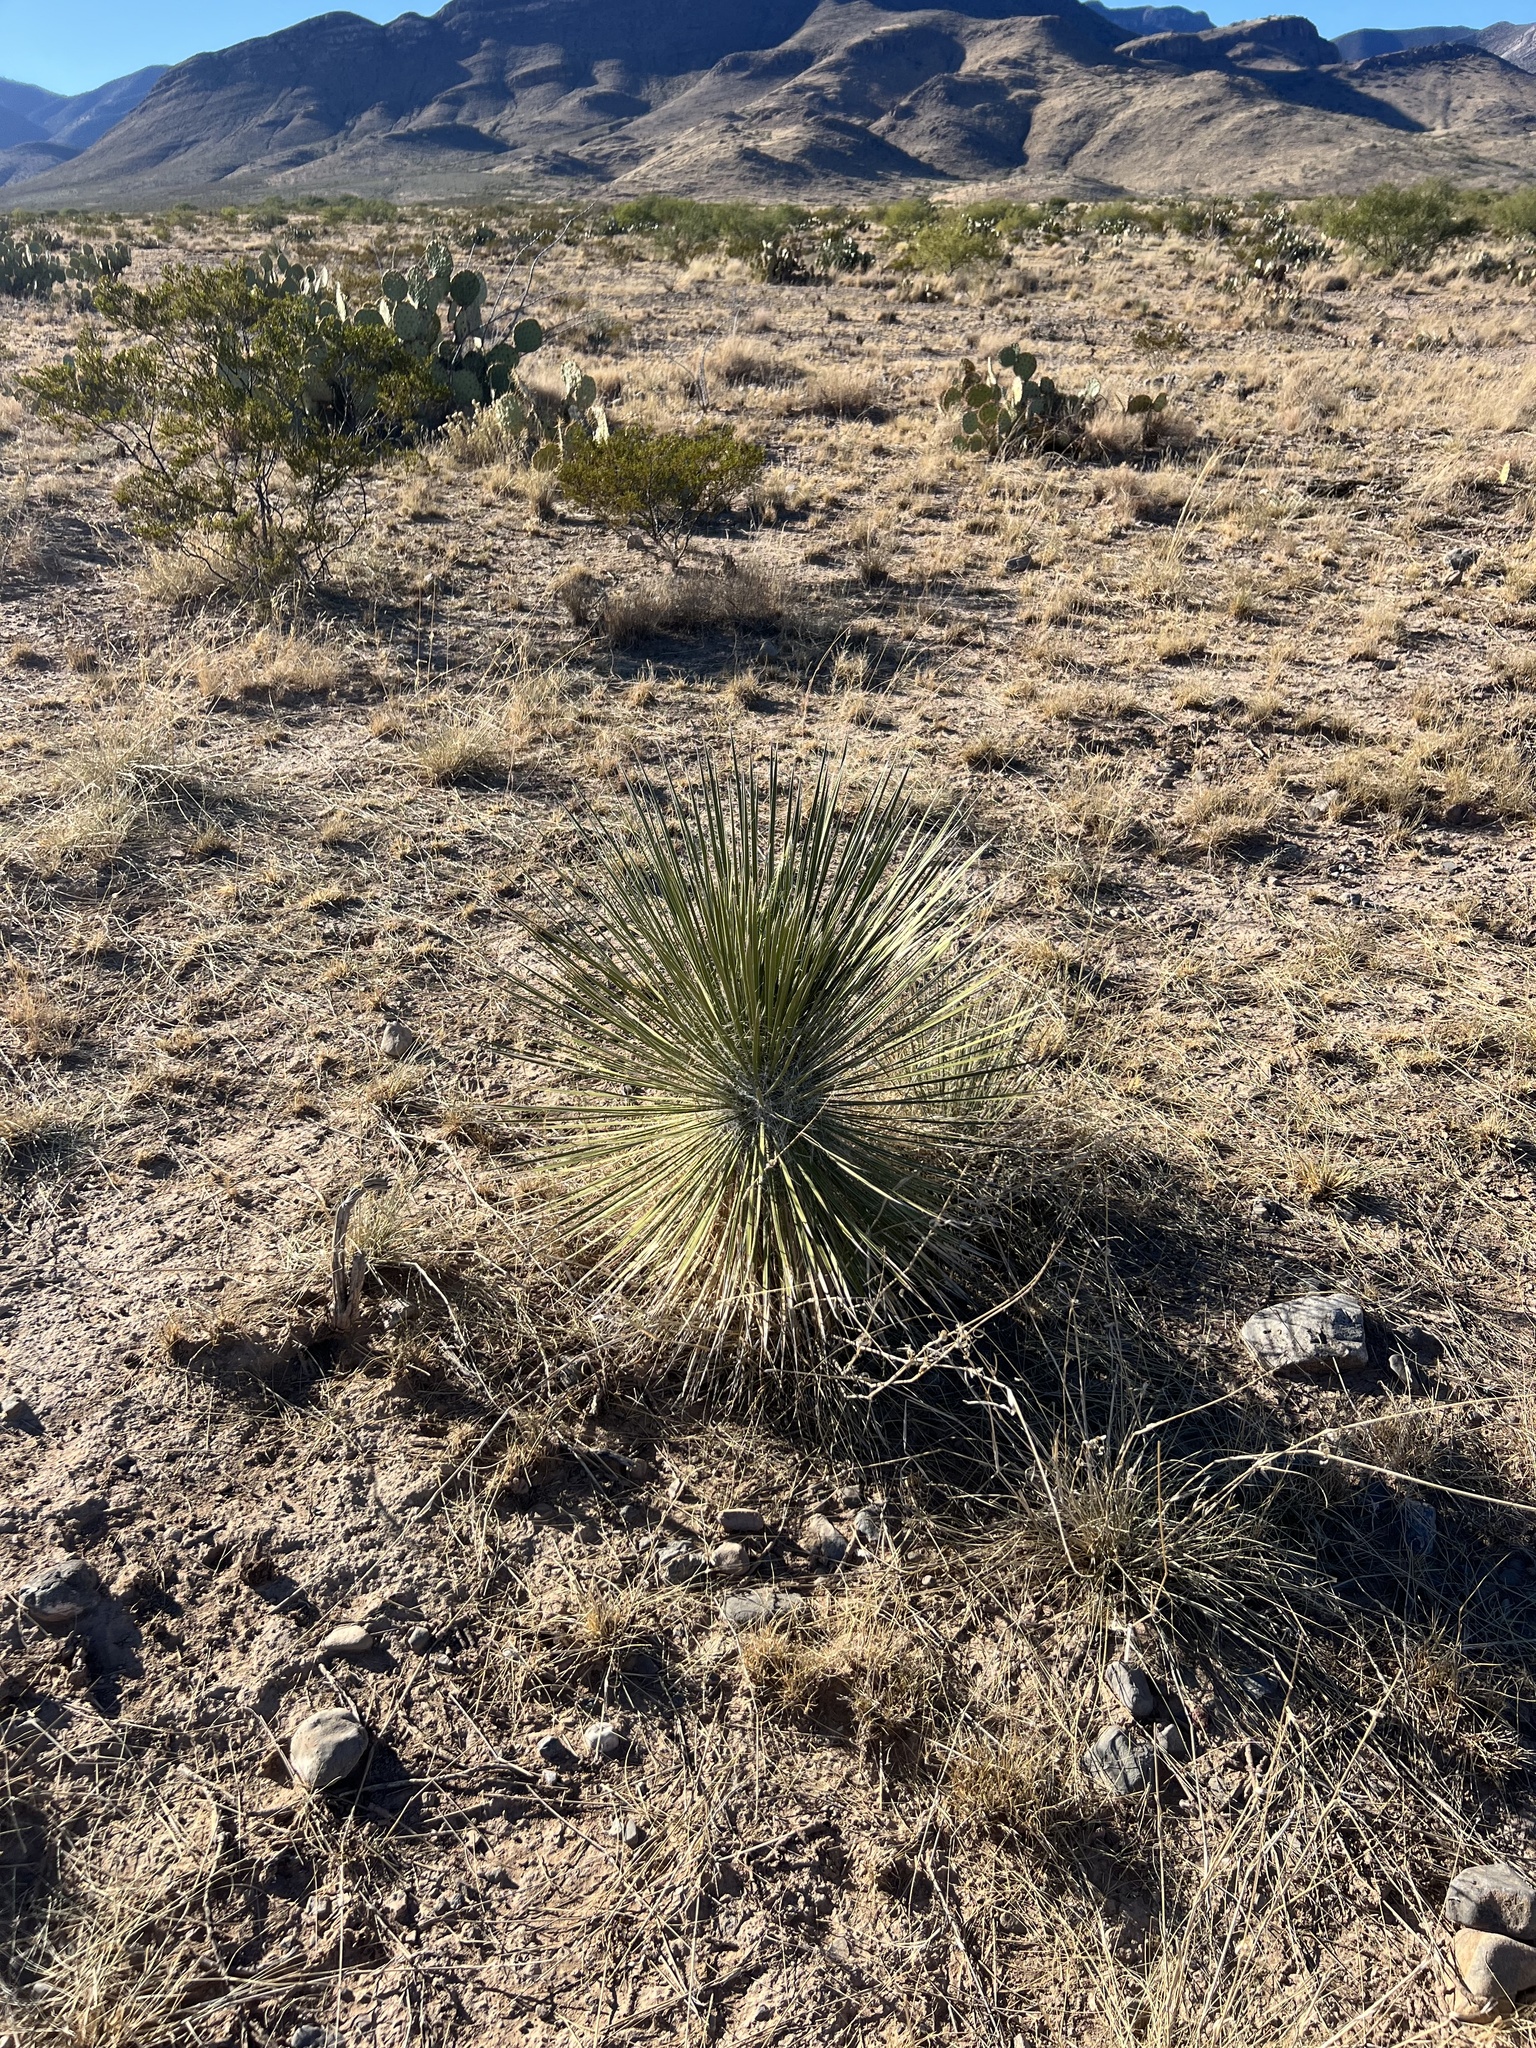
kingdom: Plantae
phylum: Tracheophyta
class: Liliopsida
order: Asparagales
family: Asparagaceae
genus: Yucca
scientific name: Yucca elata
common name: Palmella
